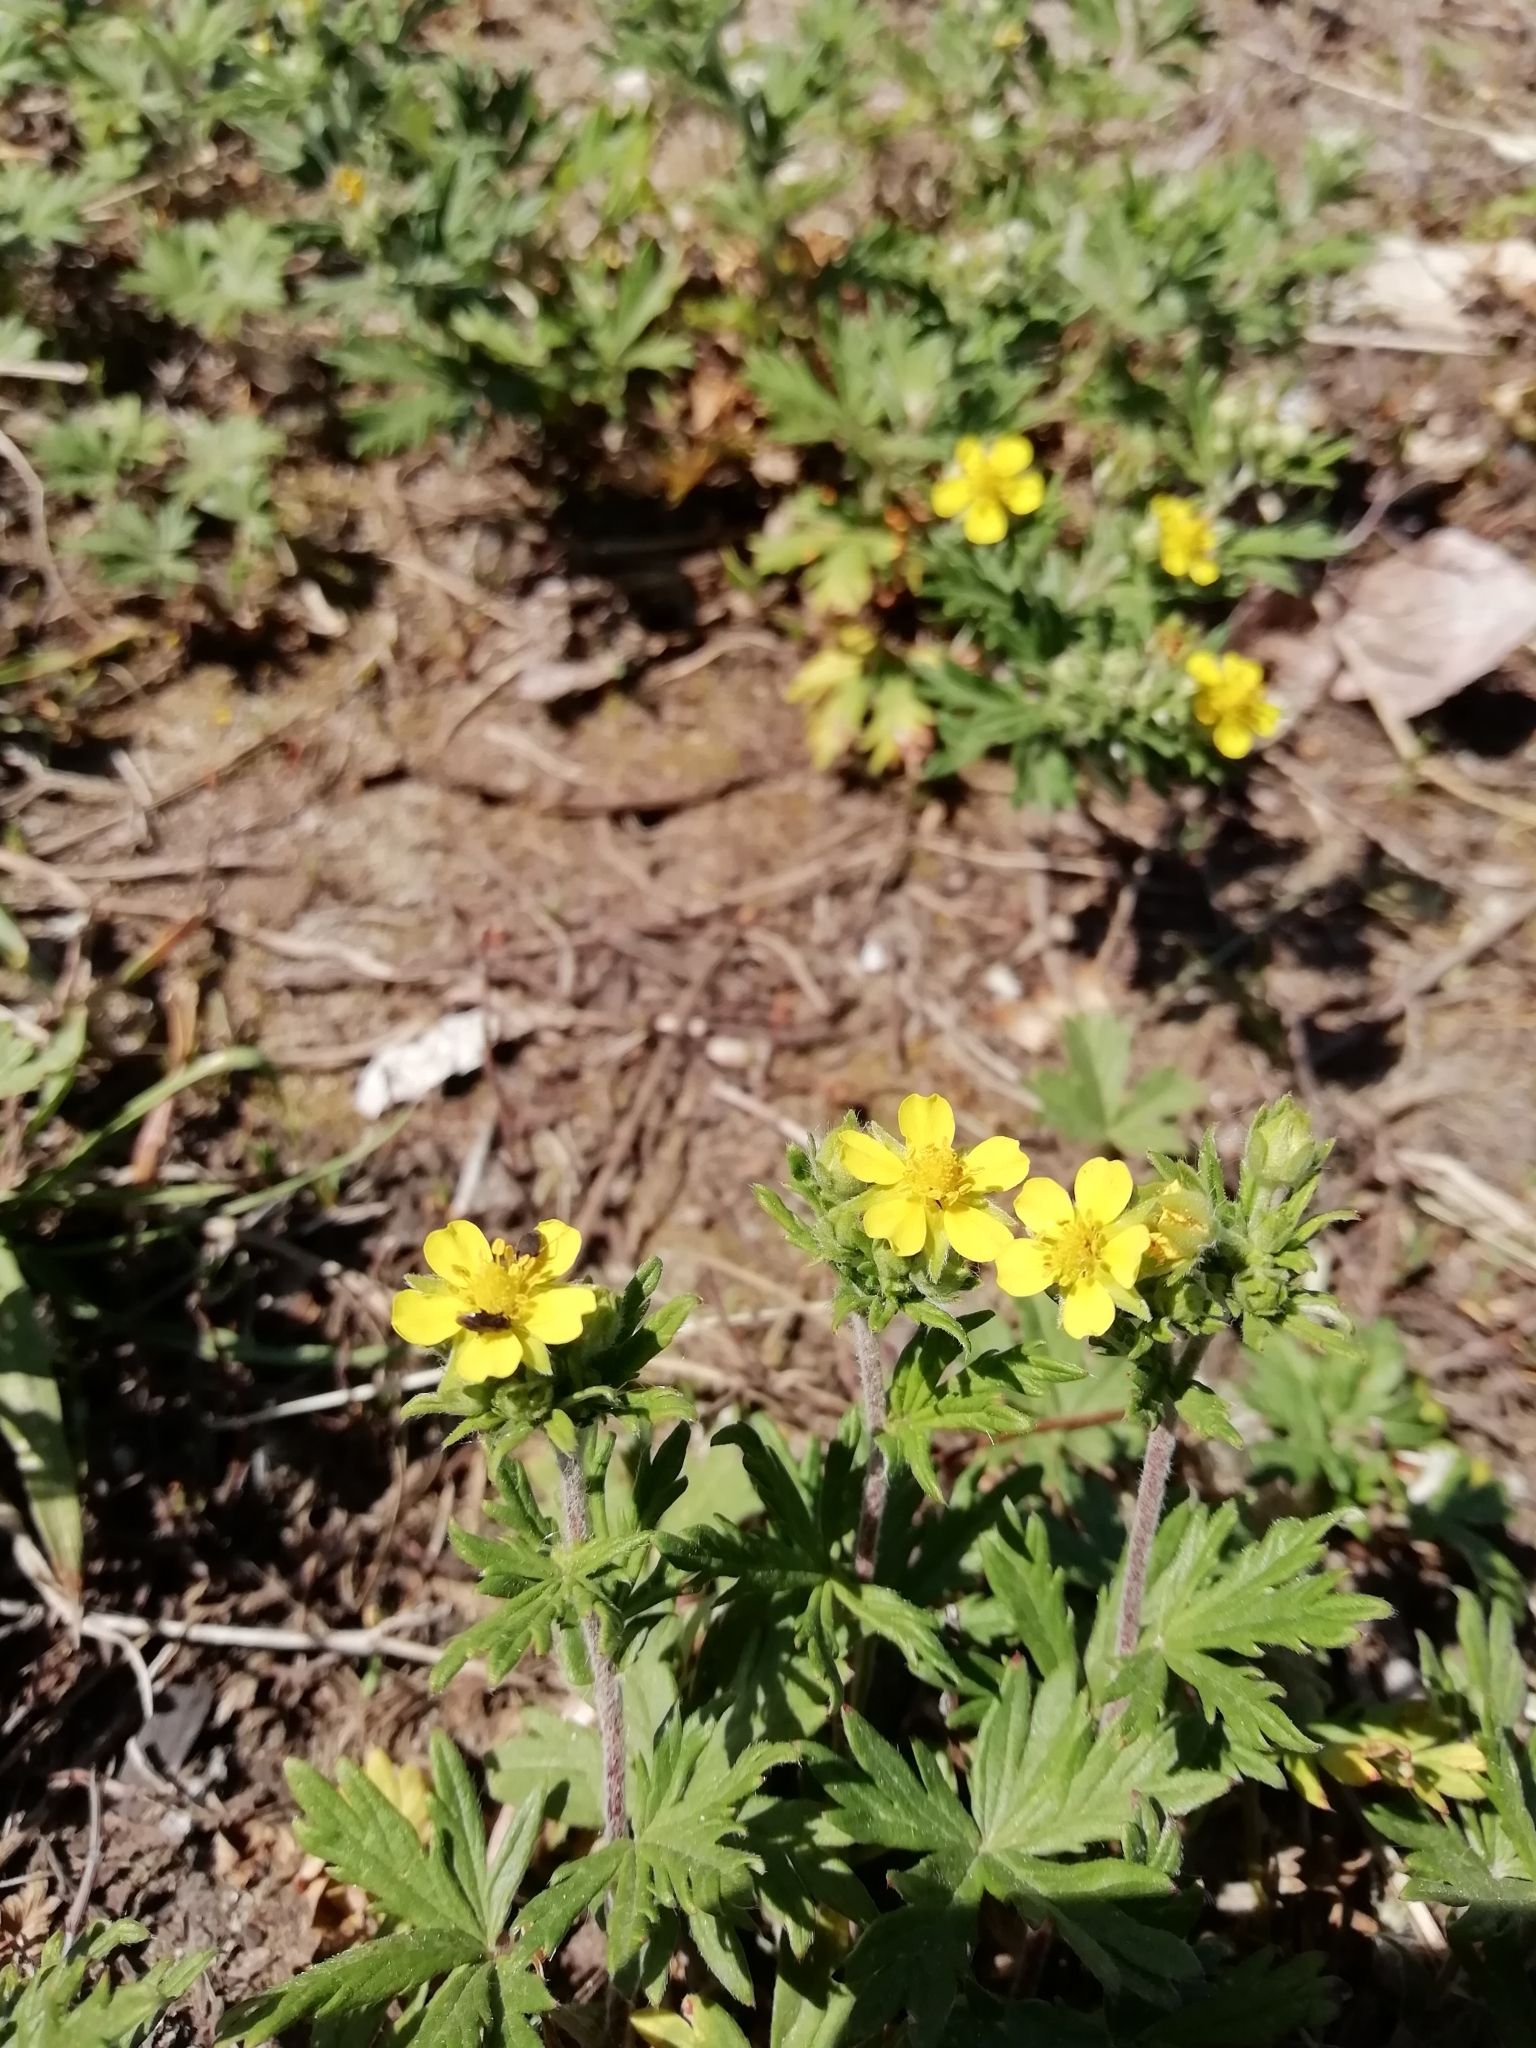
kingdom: Plantae
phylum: Tracheophyta
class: Magnoliopsida
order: Rosales
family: Rosaceae
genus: Potentilla
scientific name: Potentilla argentea
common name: Hoary cinquefoil
